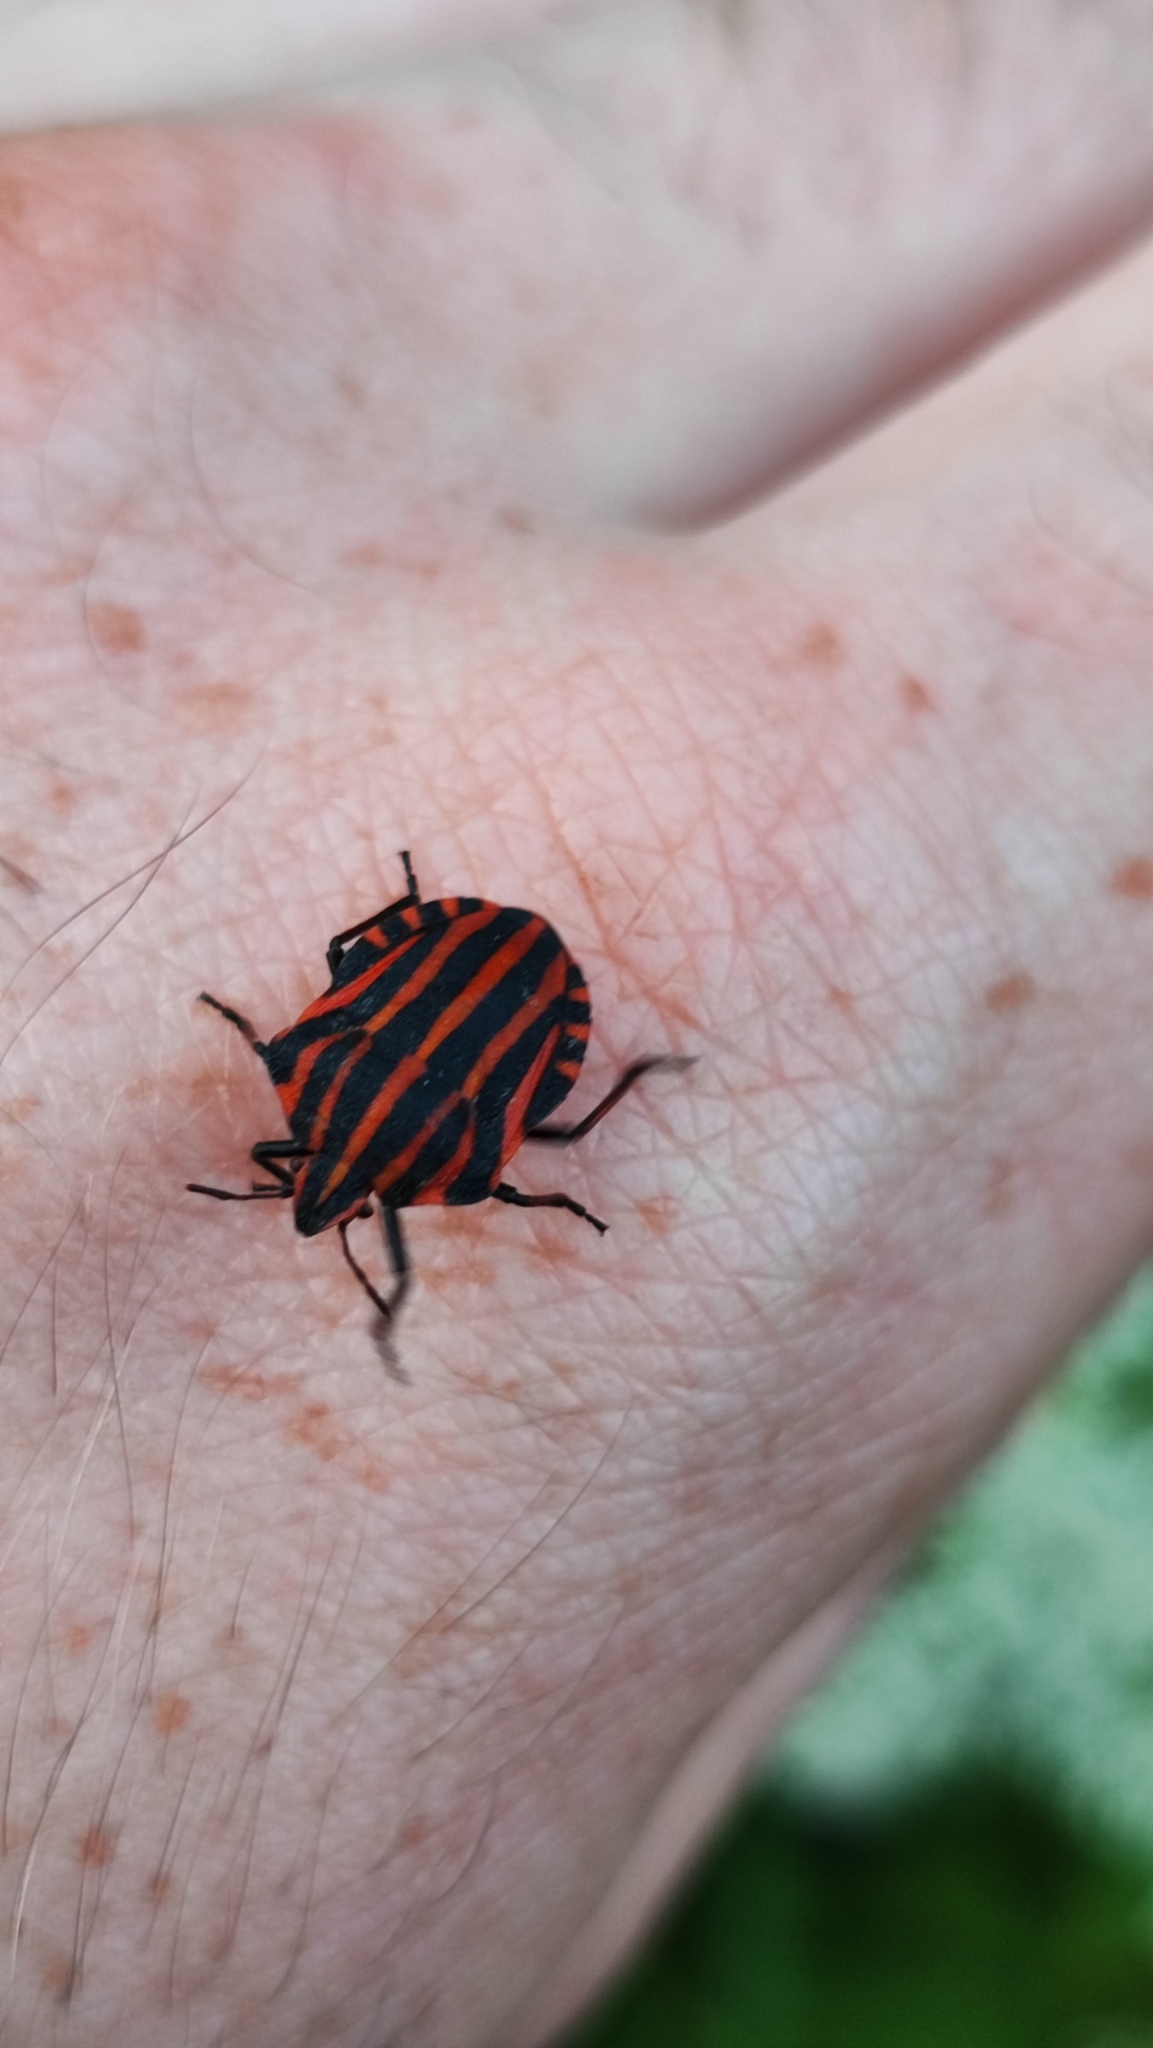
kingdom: Animalia
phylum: Arthropoda
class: Insecta
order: Hemiptera
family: Pentatomidae
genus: Graphosoma
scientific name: Graphosoma italicum
